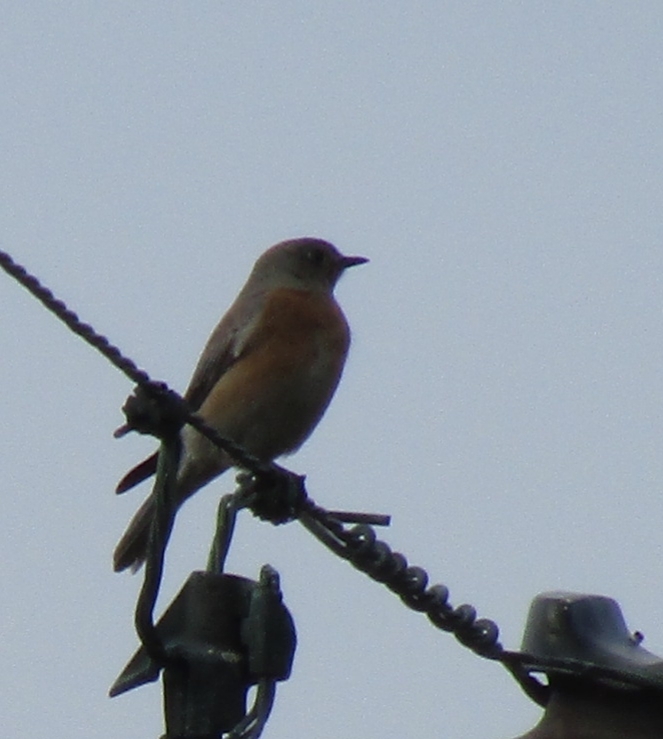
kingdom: Animalia
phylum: Chordata
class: Aves
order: Passeriformes
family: Turdidae
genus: Sialia
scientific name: Sialia mexicana
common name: Western bluebird
